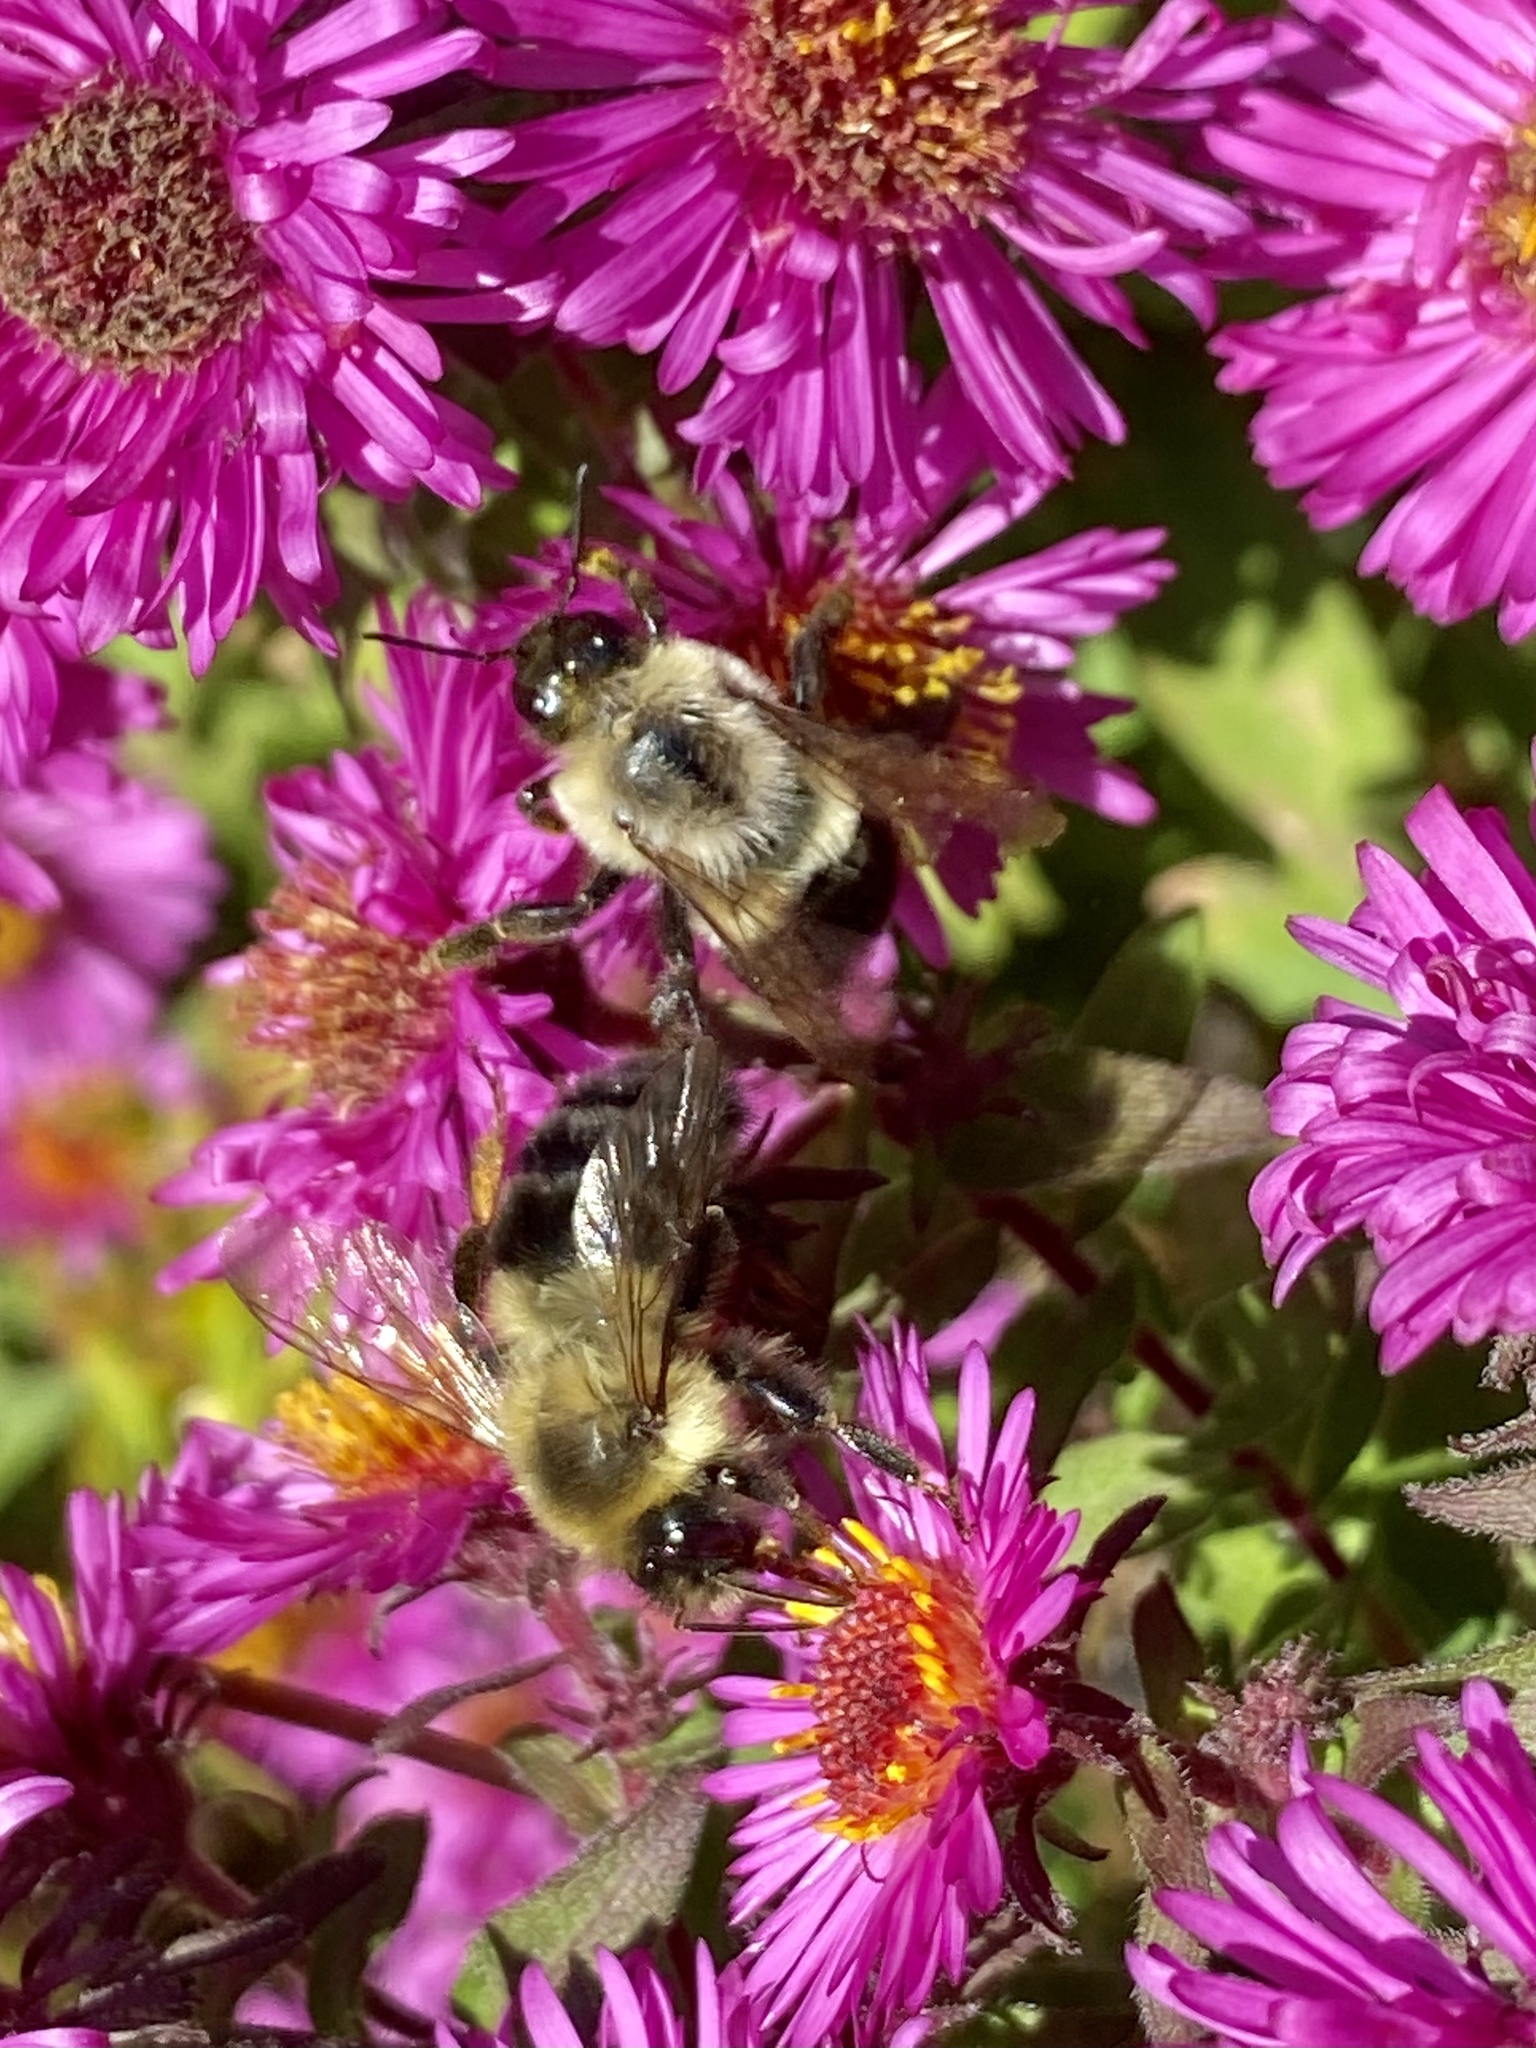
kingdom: Animalia
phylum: Arthropoda
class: Insecta
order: Hymenoptera
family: Apidae
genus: Bombus
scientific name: Bombus impatiens
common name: Common eastern bumble bee
